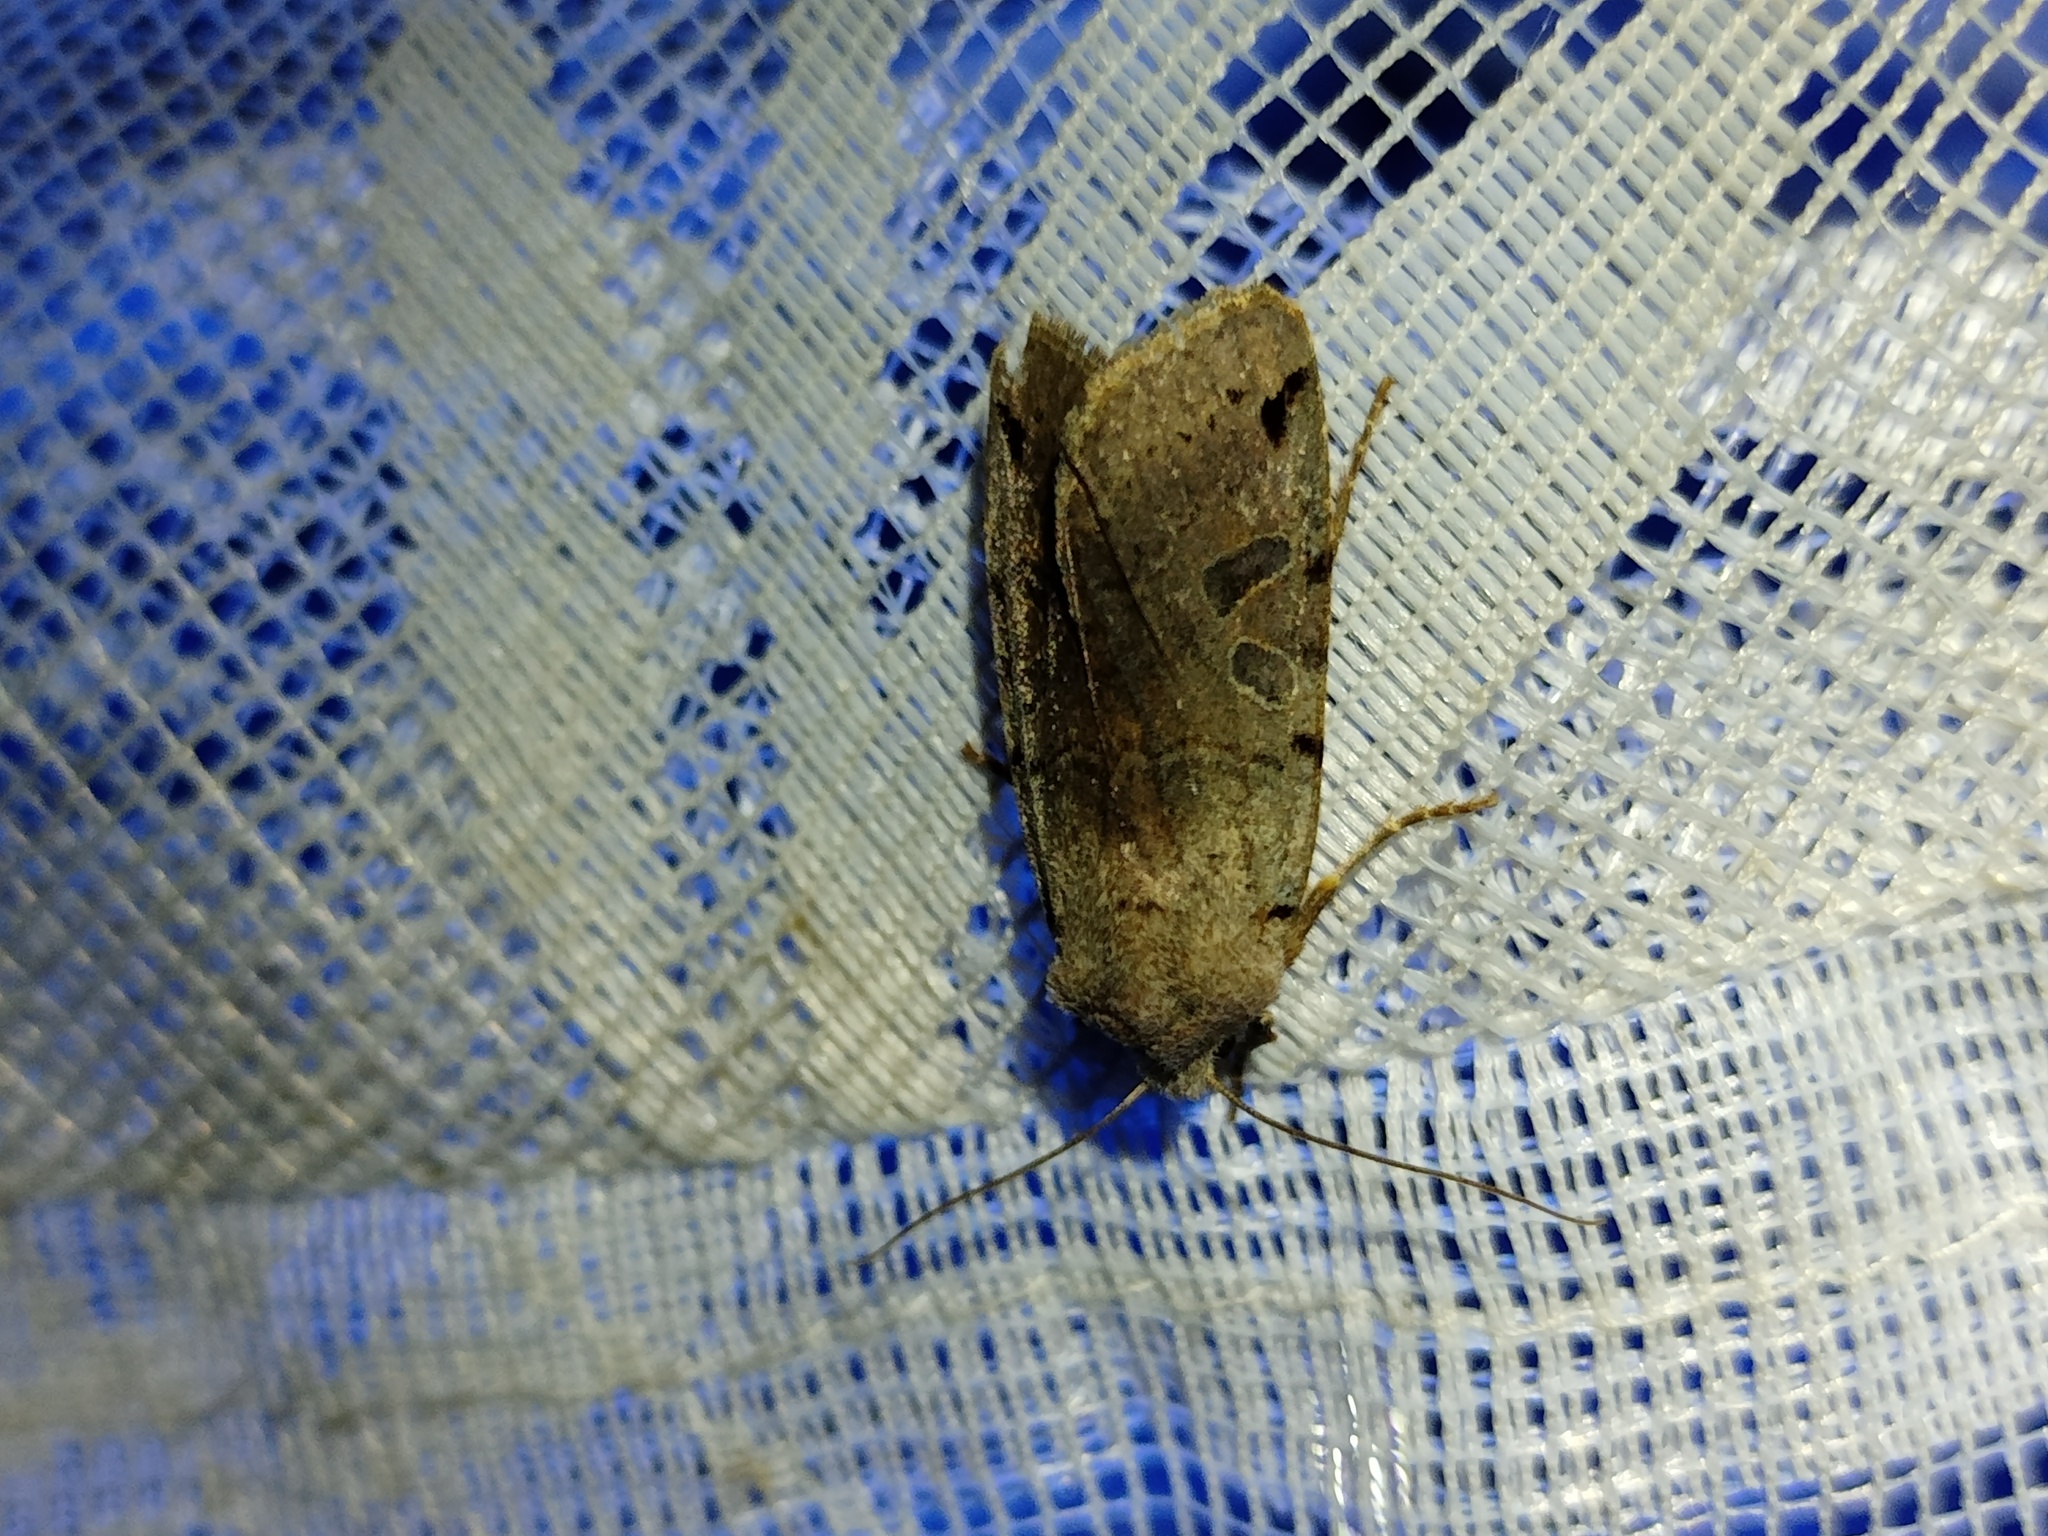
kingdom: Animalia
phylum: Arthropoda
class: Insecta
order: Lepidoptera
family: Noctuidae
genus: Agrochola
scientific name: Agrochola litura
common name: Brown-spot pinion
